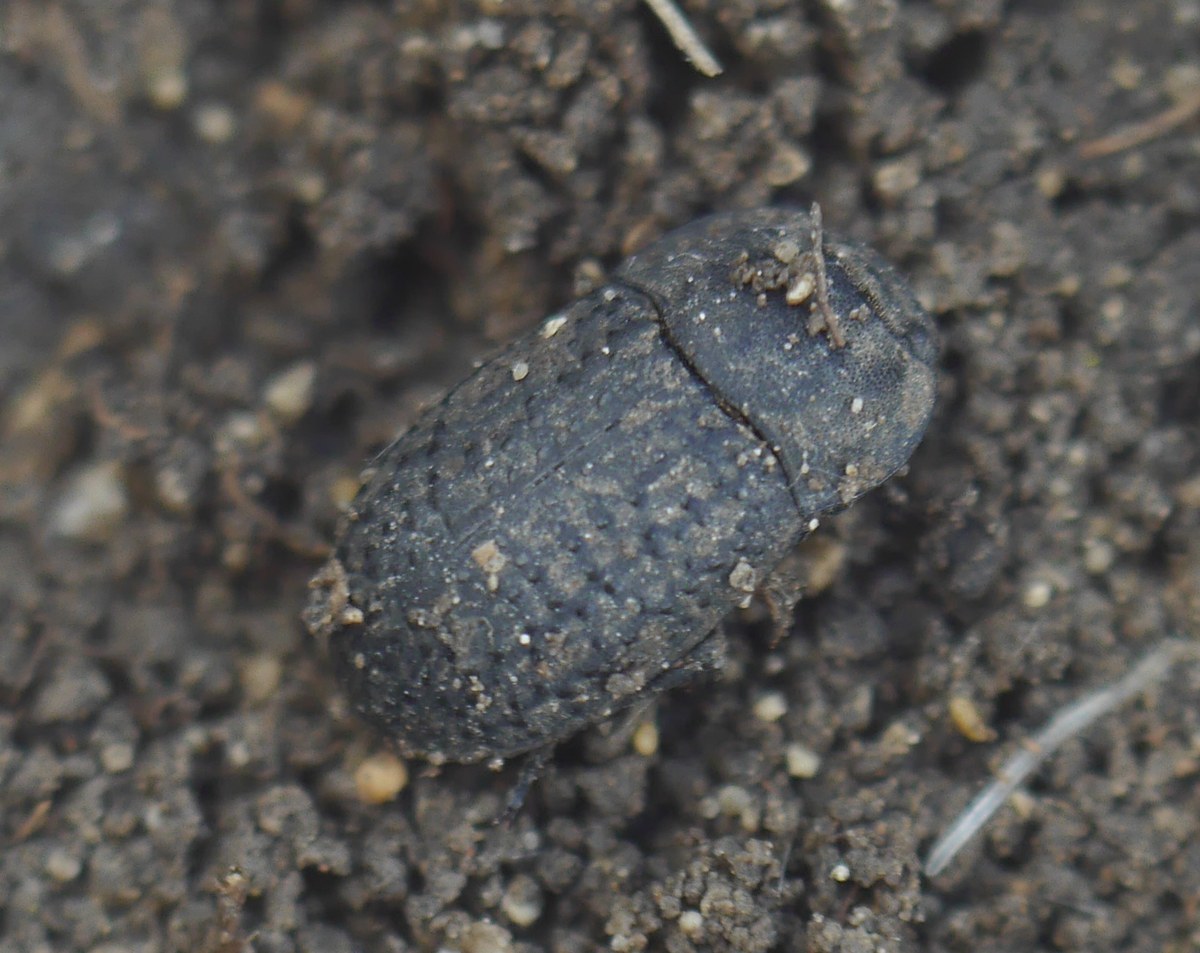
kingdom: Animalia
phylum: Arthropoda
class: Insecta
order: Coleoptera
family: Tenebrionidae
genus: Opatrum
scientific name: Opatrum sabulosum
